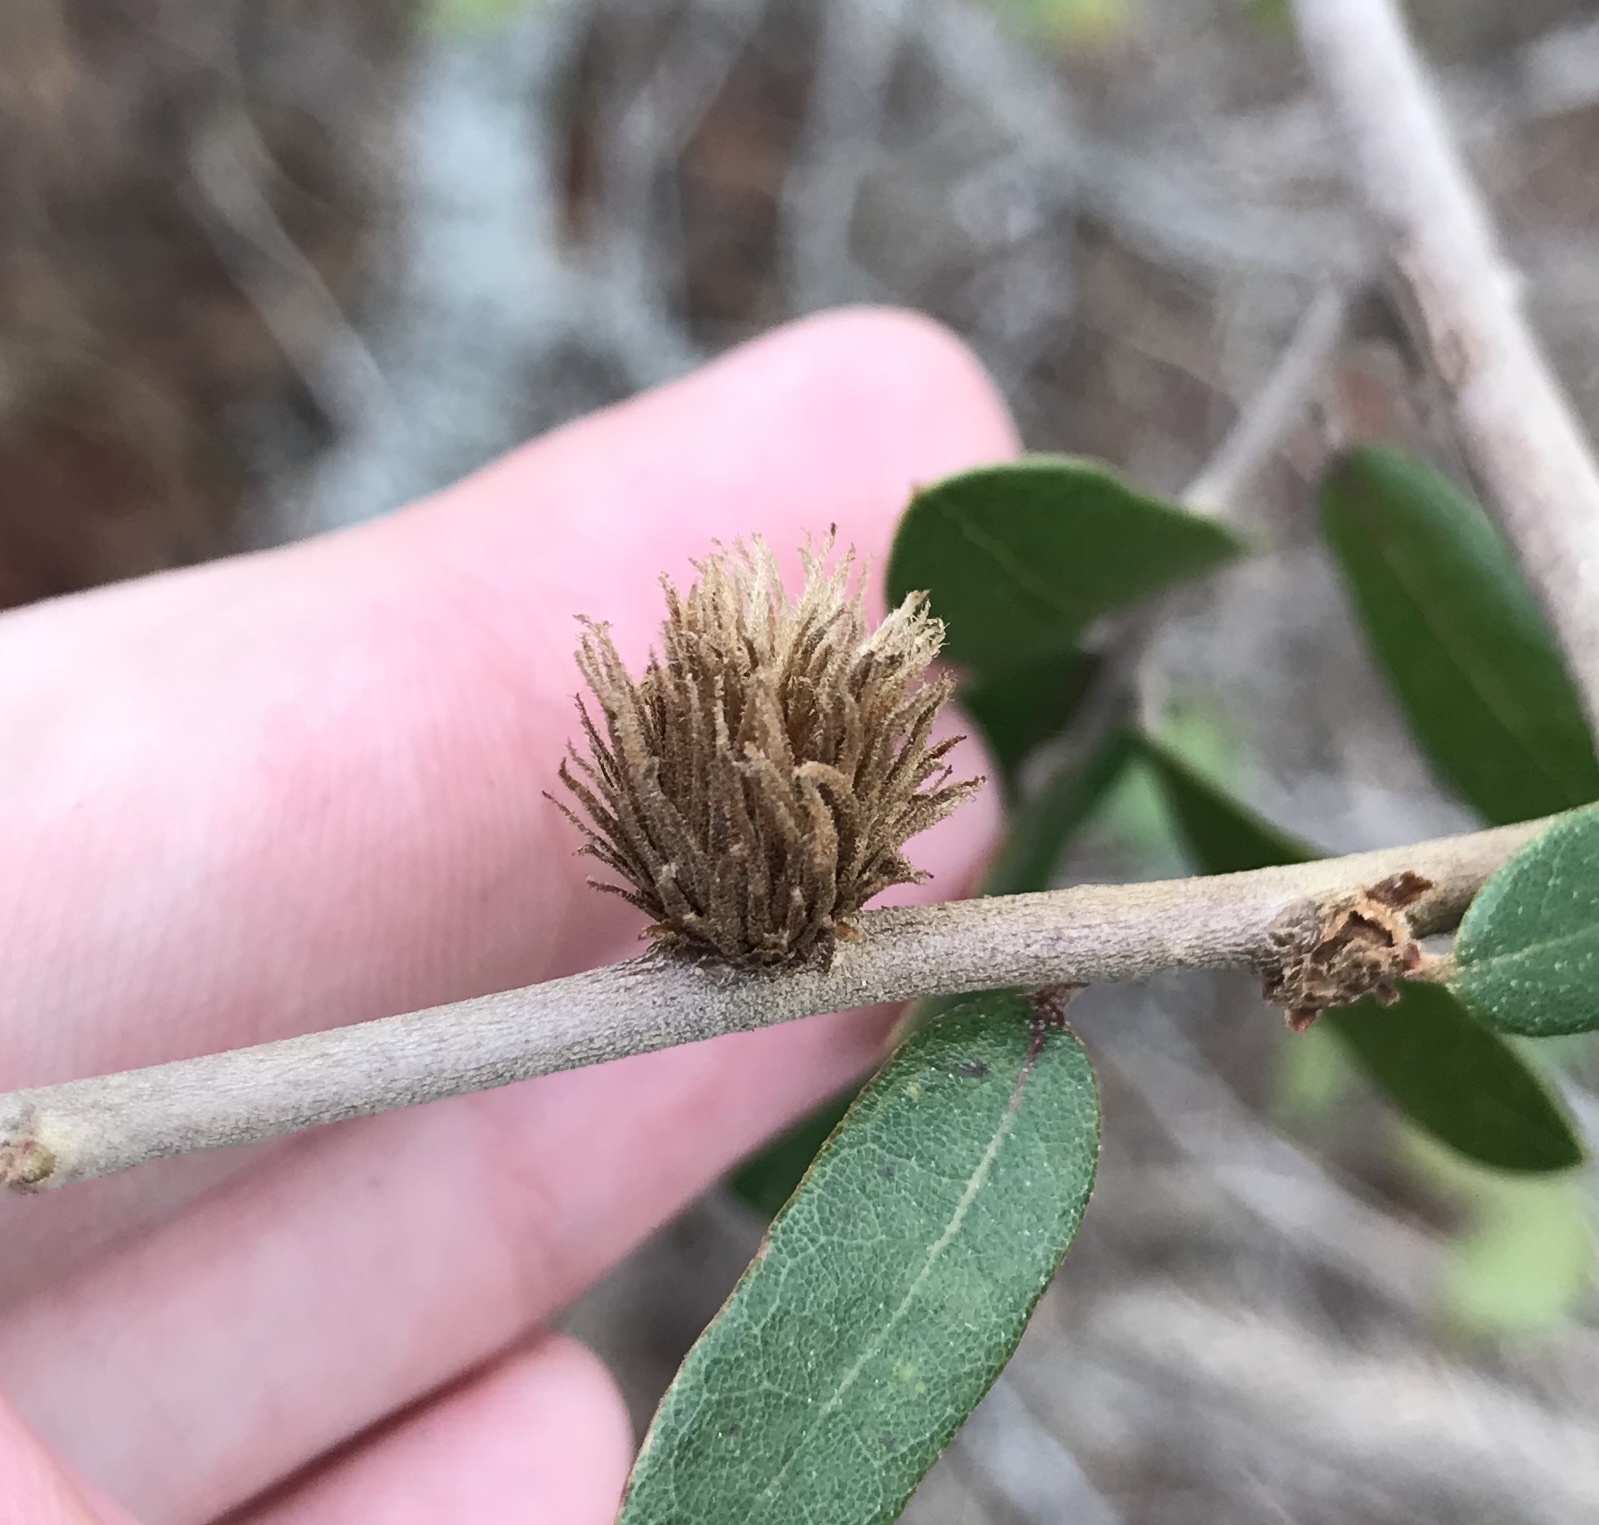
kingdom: Animalia
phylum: Arthropoda
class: Insecta
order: Hymenoptera
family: Cynipidae
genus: Andricus
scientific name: Andricus quercusfoliatus
